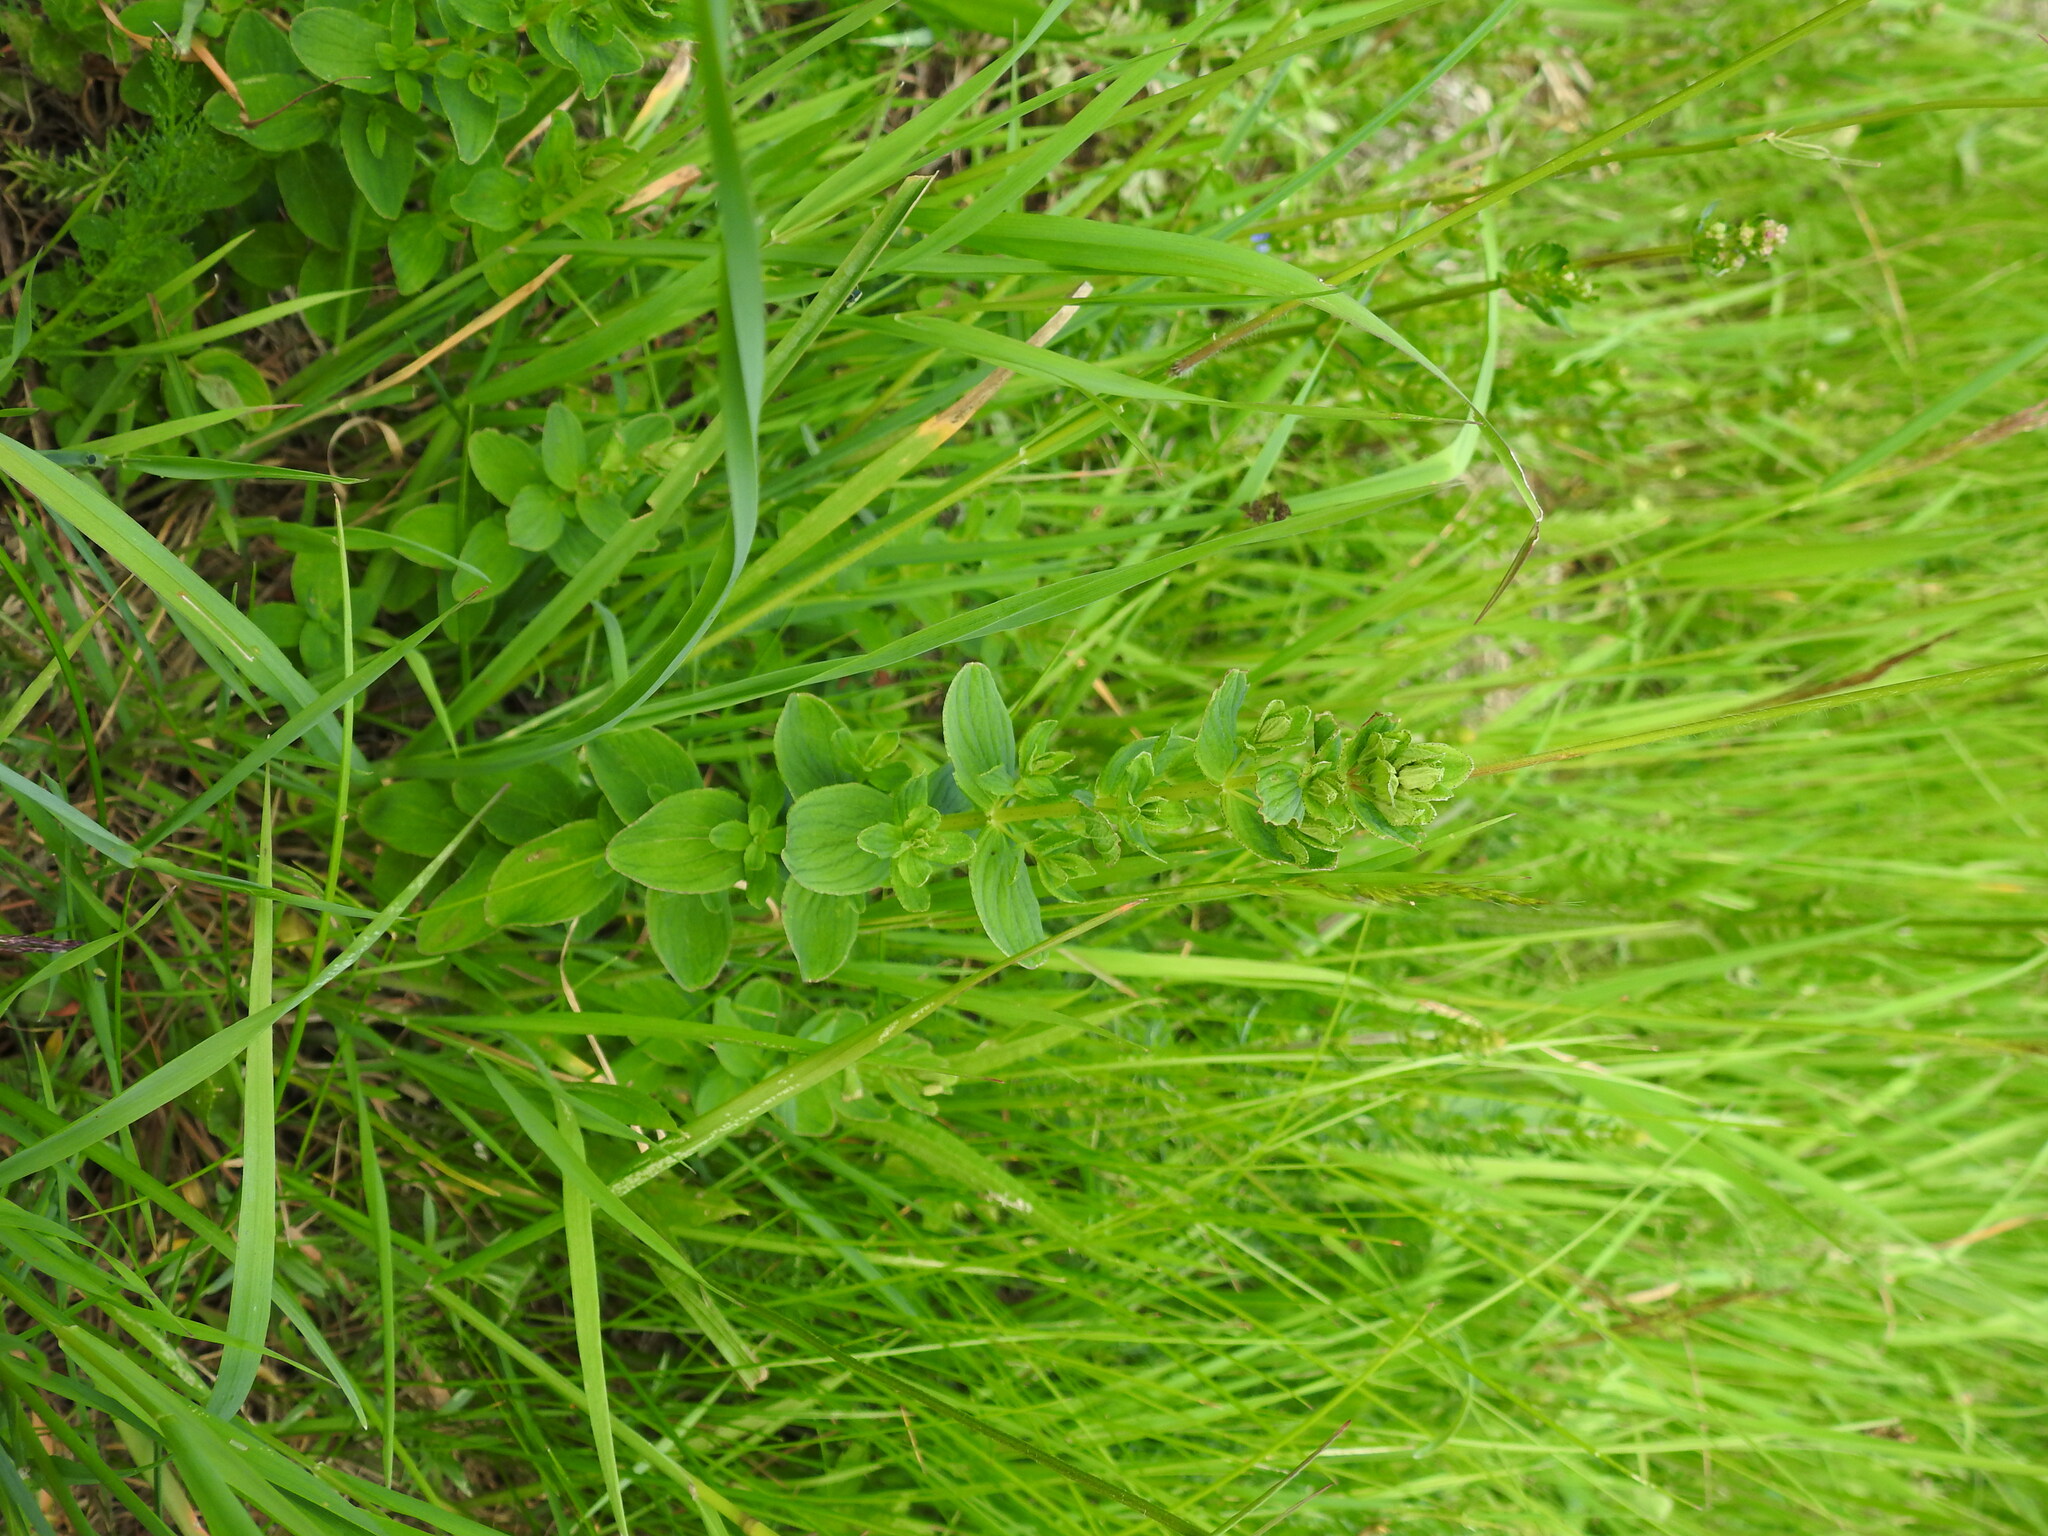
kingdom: Plantae
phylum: Tracheophyta
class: Magnoliopsida
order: Malpighiales
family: Hypericaceae
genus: Hypericum
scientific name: Hypericum maculatum
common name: Imperforate st. john's-wort
